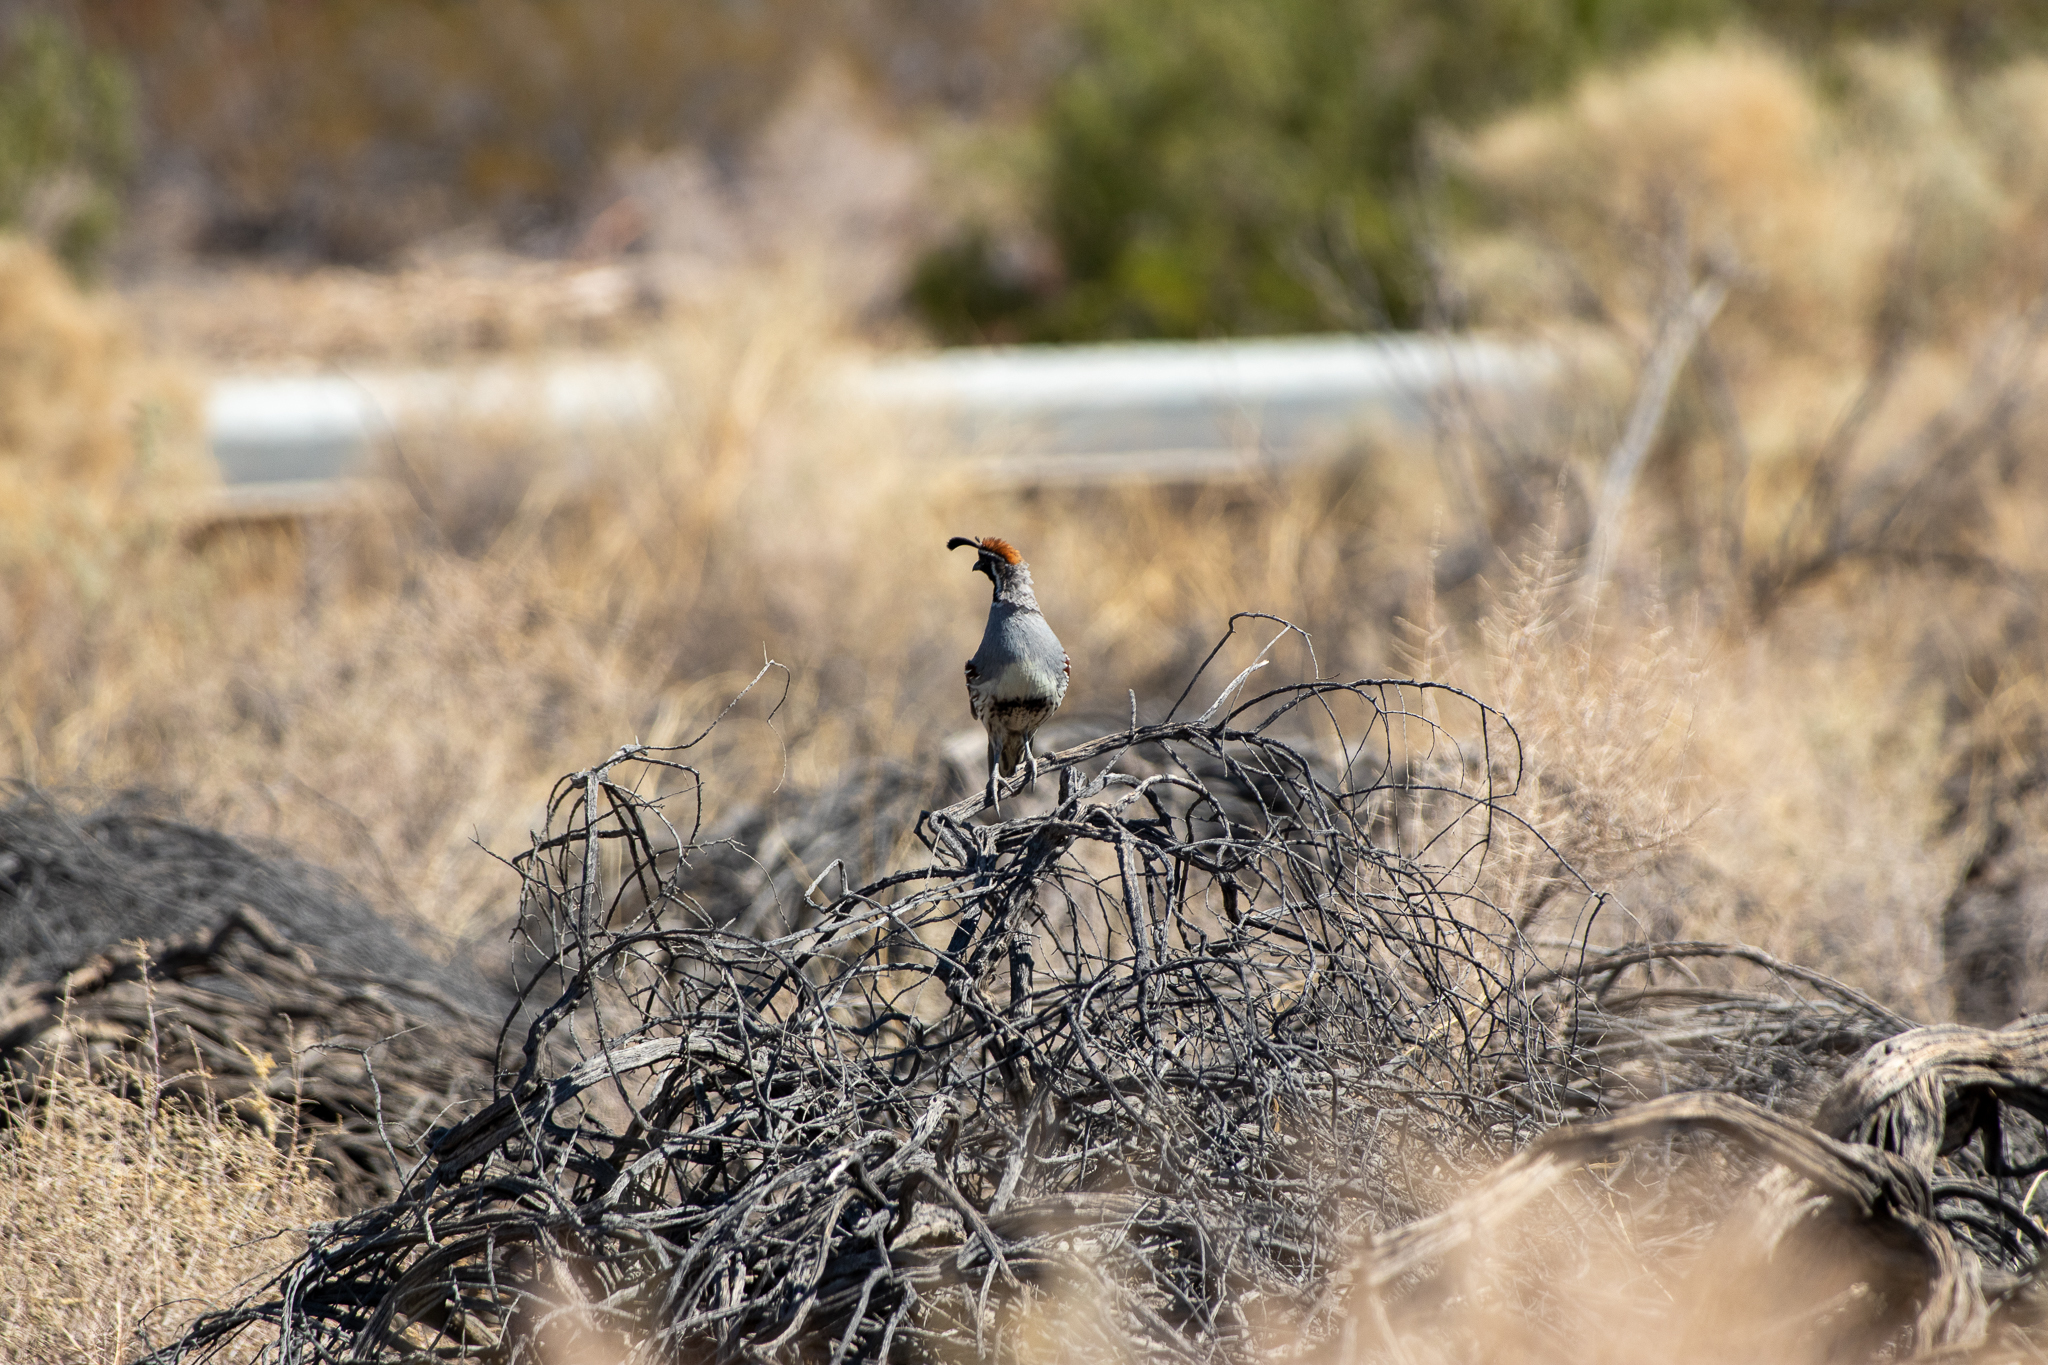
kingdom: Animalia
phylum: Chordata
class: Aves
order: Galliformes
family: Odontophoridae
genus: Callipepla
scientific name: Callipepla gambelii
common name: Gambel's quail
